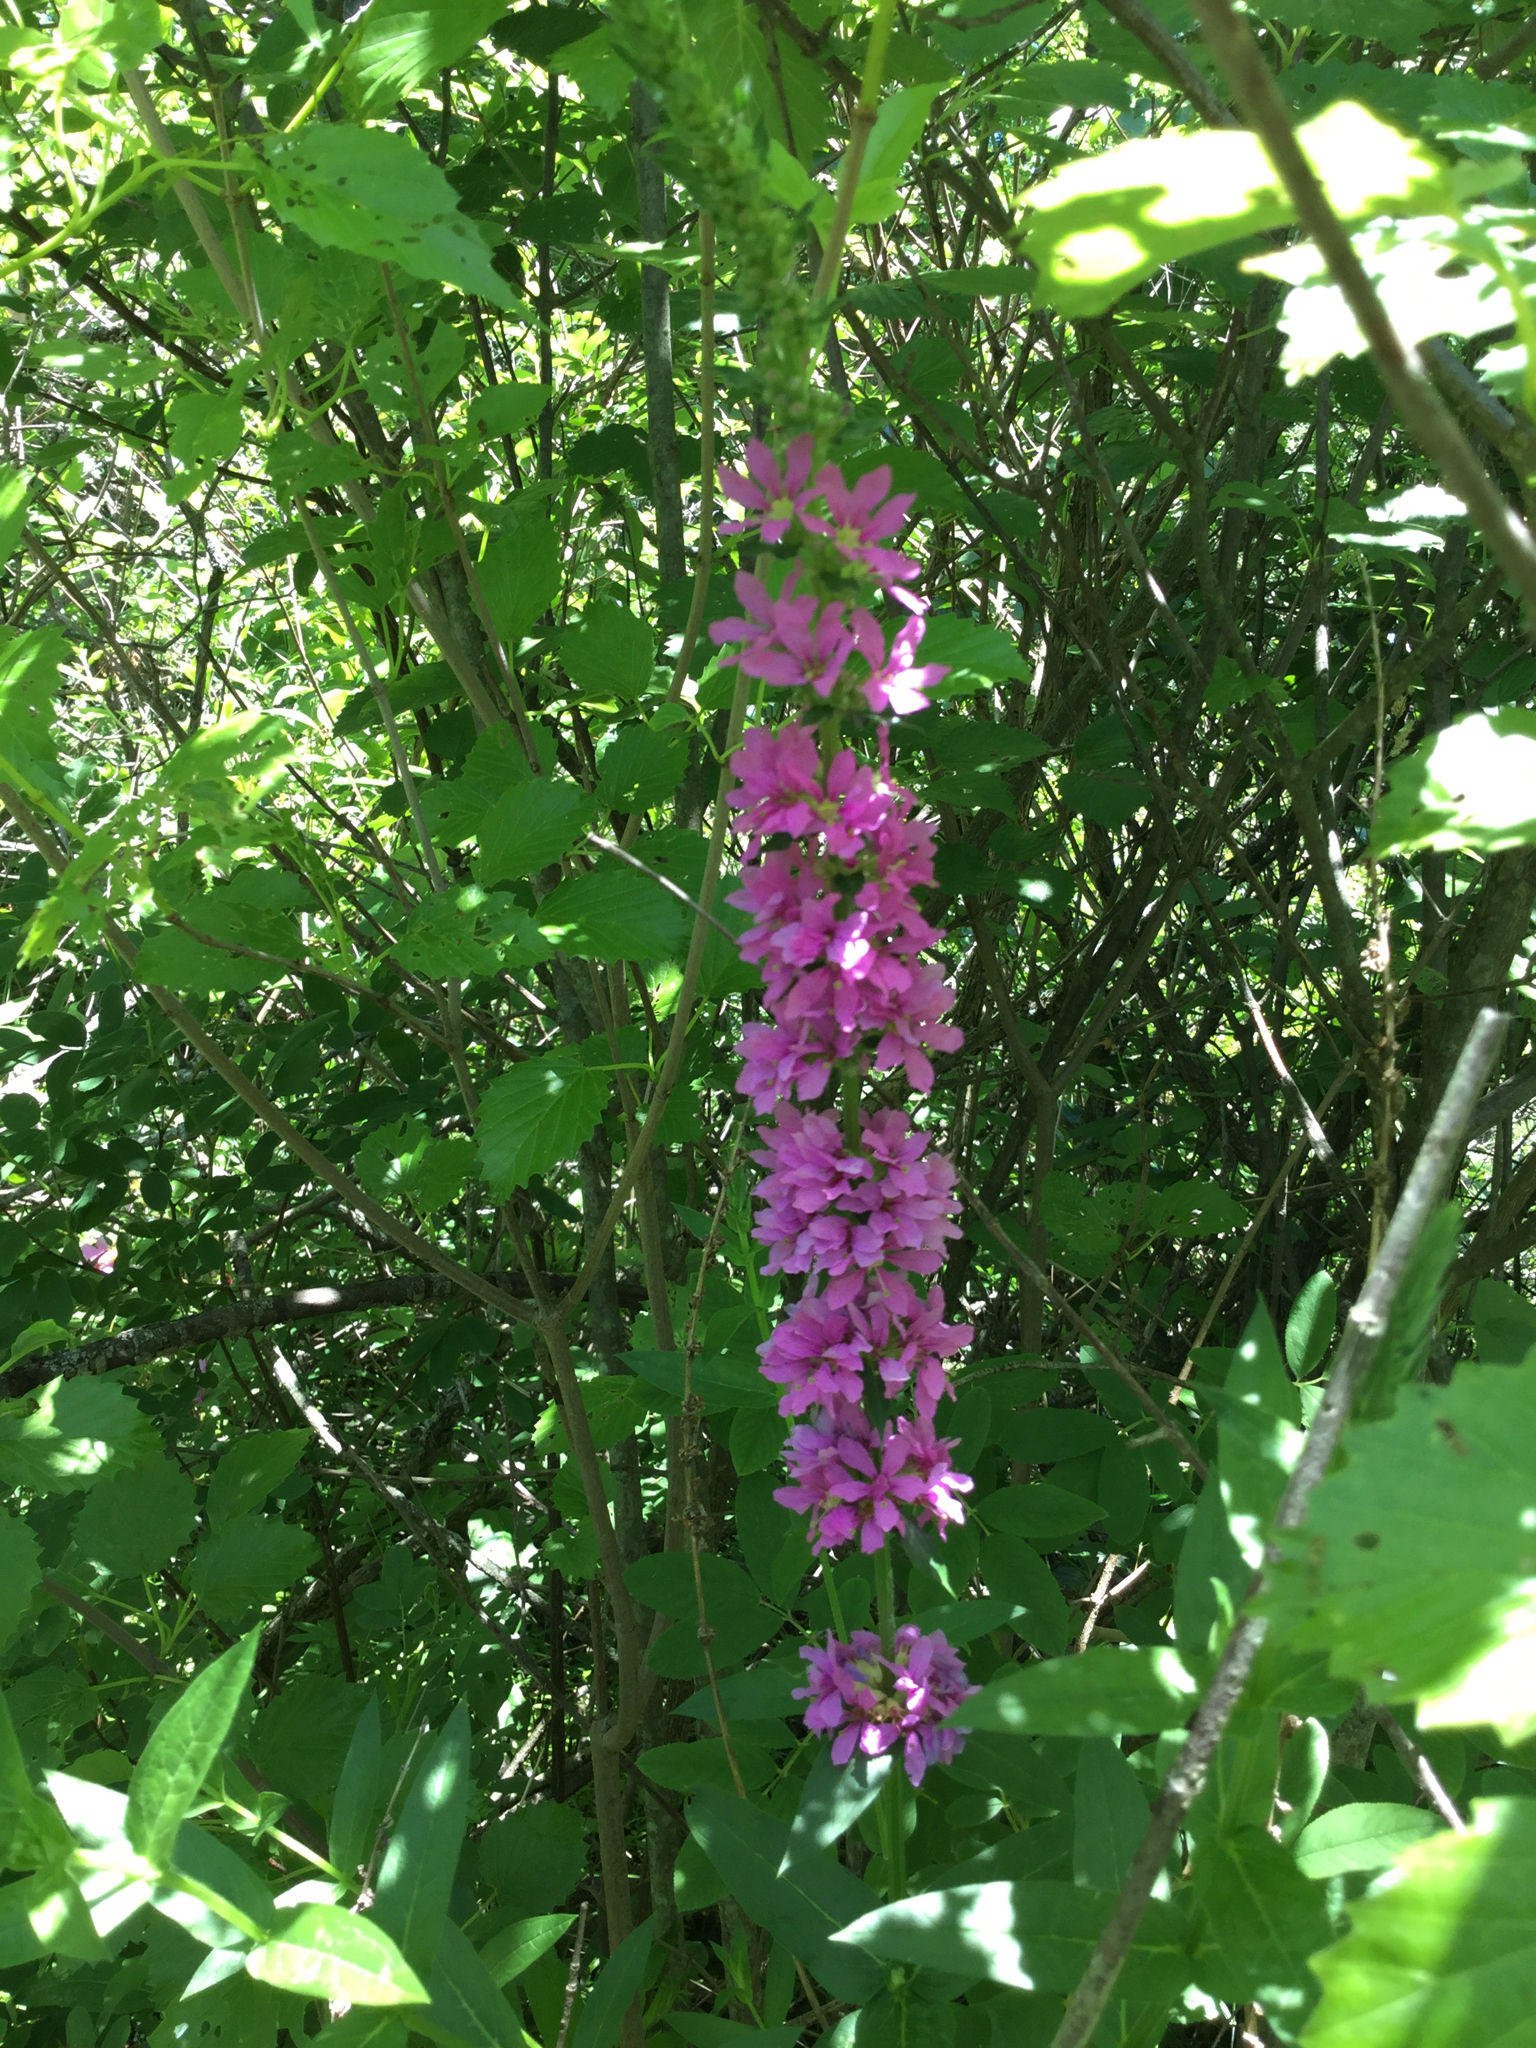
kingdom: Plantae
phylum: Tracheophyta
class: Magnoliopsida
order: Myrtales
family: Lythraceae
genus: Lythrum
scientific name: Lythrum salicaria
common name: Purple loosestrife
